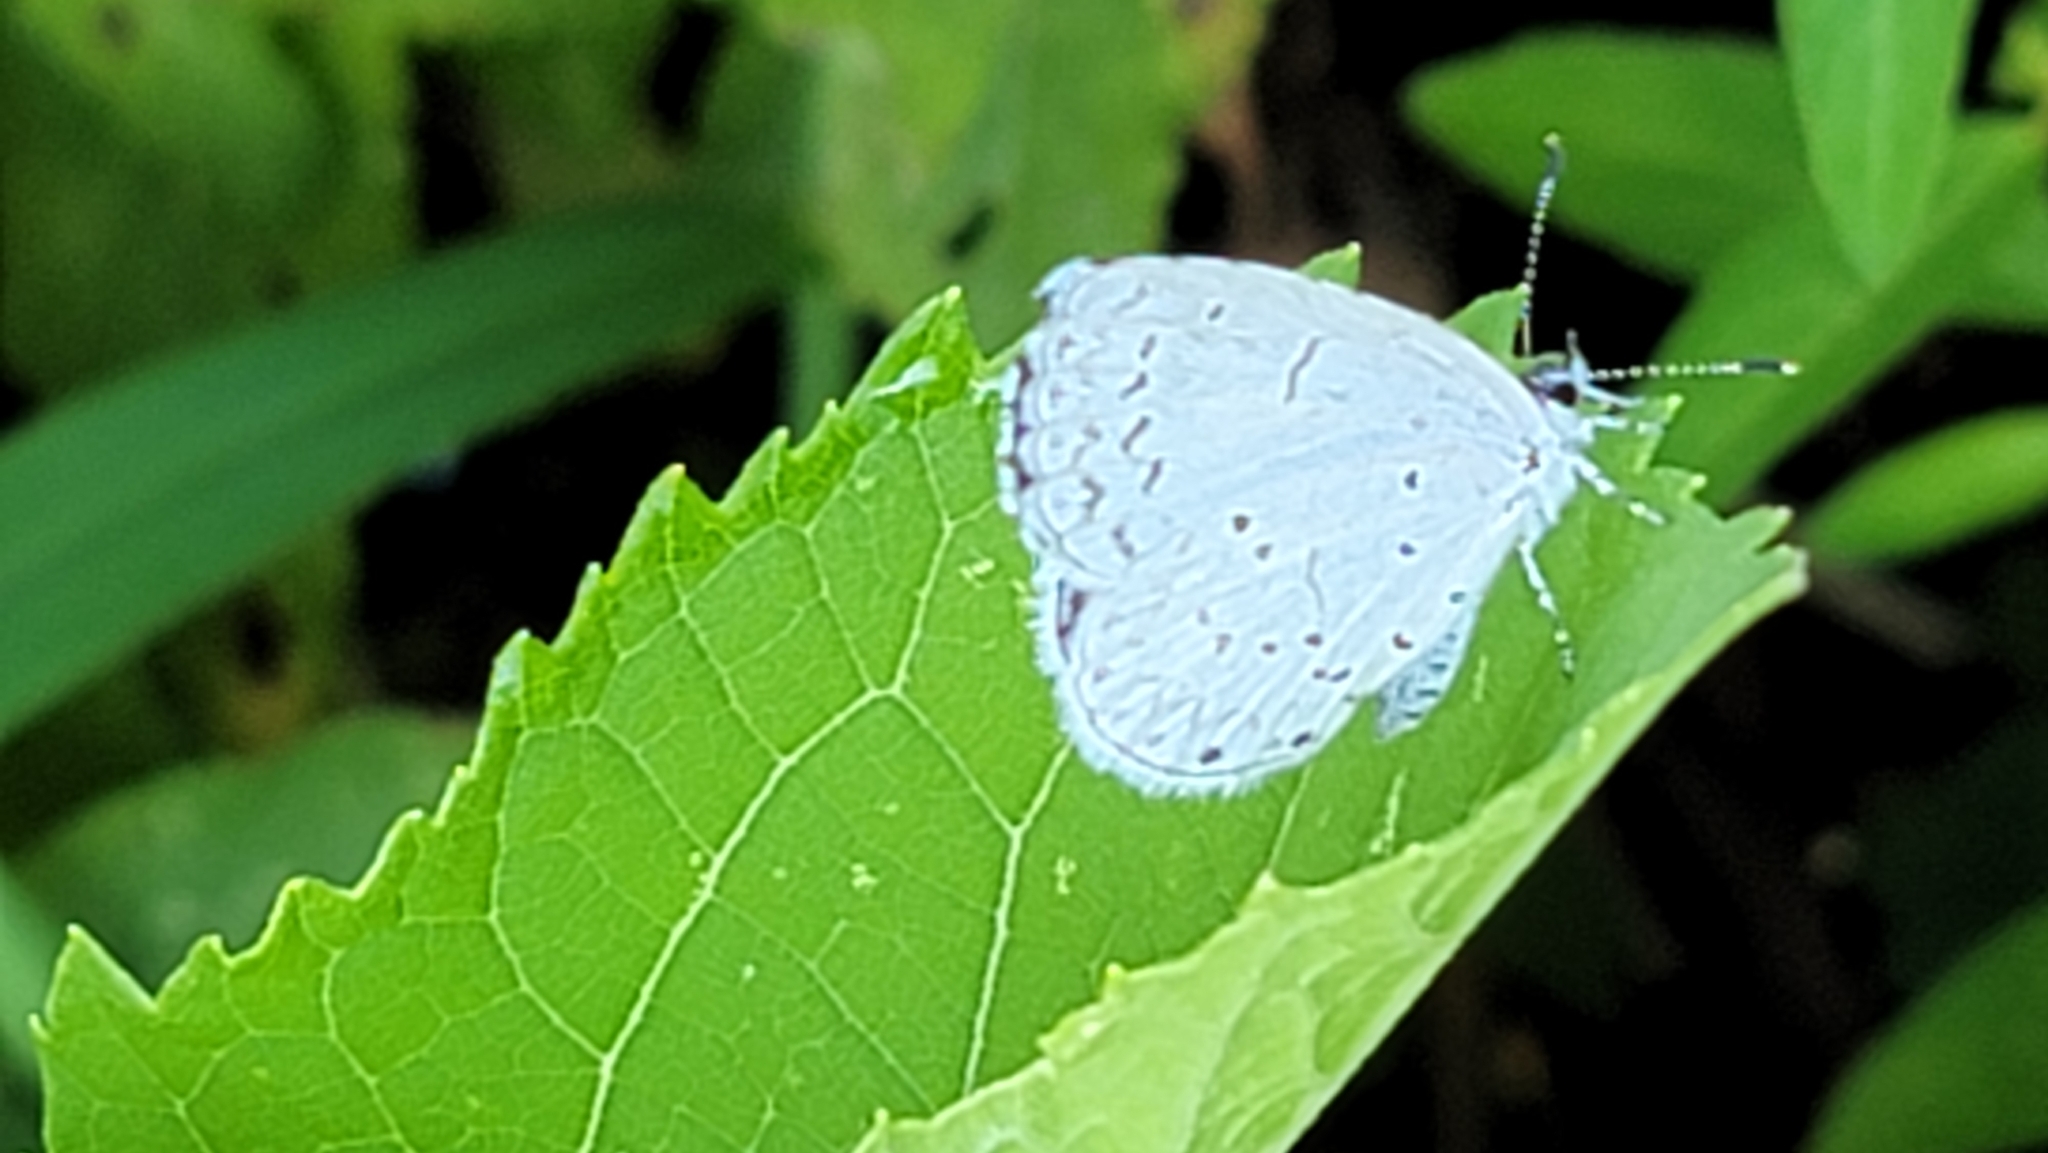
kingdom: Animalia
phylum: Arthropoda
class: Insecta
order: Lepidoptera
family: Lycaenidae
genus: Cyaniris
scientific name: Cyaniris neglecta
